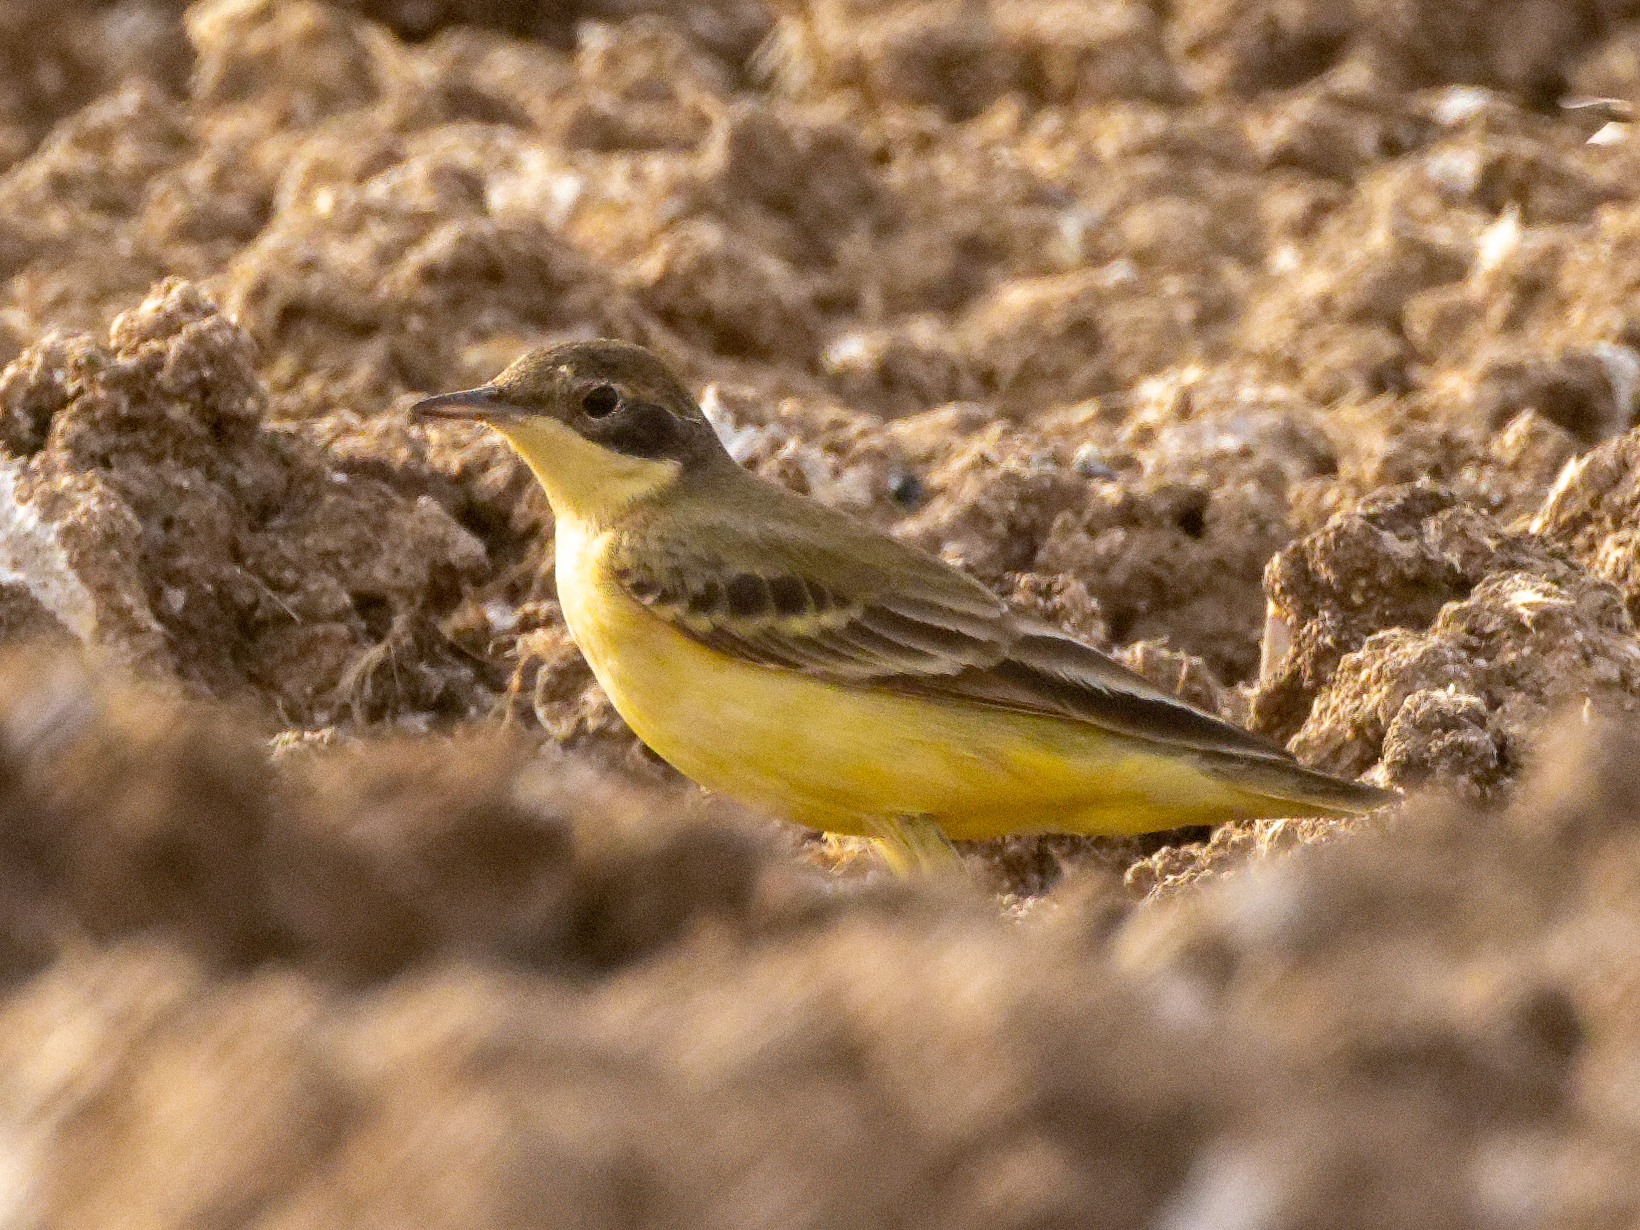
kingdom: Animalia
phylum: Chordata
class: Aves
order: Passeriformes
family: Motacillidae
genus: Motacilla
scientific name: Motacilla flava
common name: Western yellow wagtail
